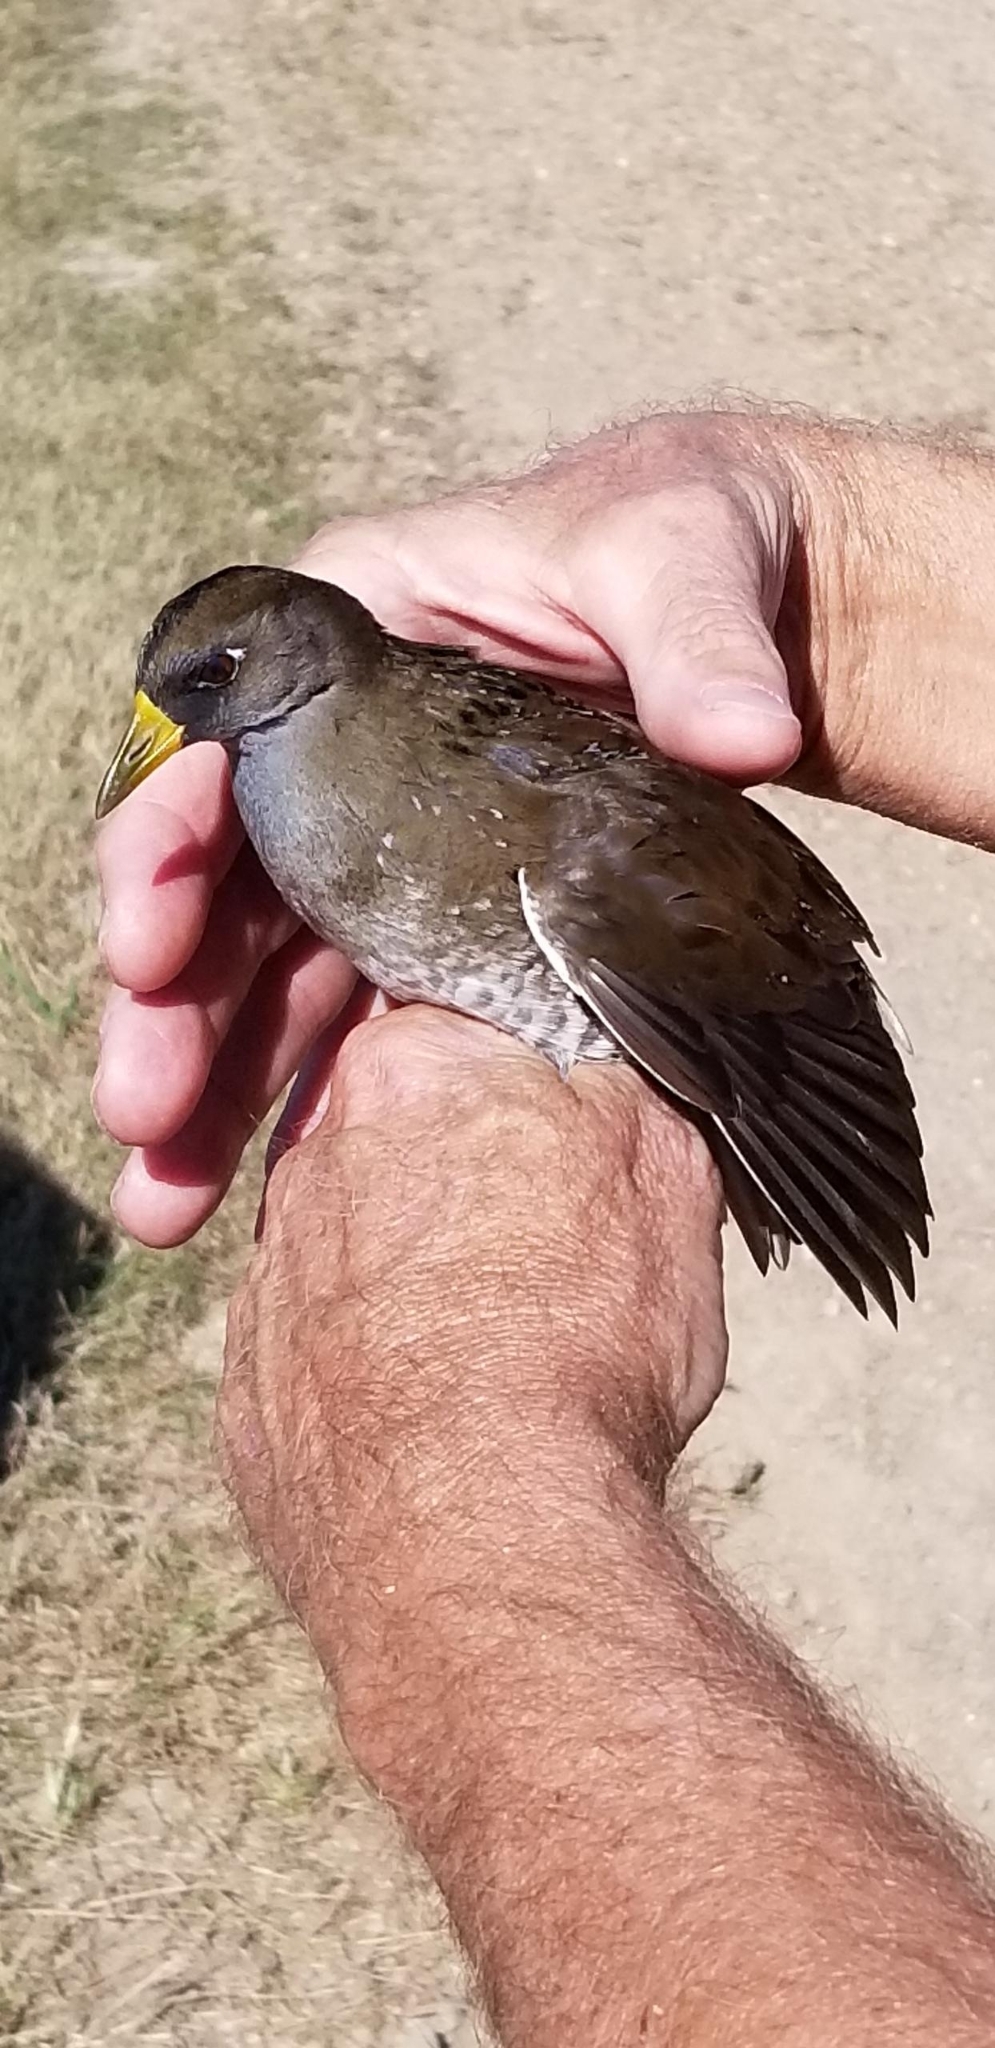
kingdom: Animalia
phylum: Chordata
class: Aves
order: Gruiformes
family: Rallidae
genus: Porzana
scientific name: Porzana carolina
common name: Sora
